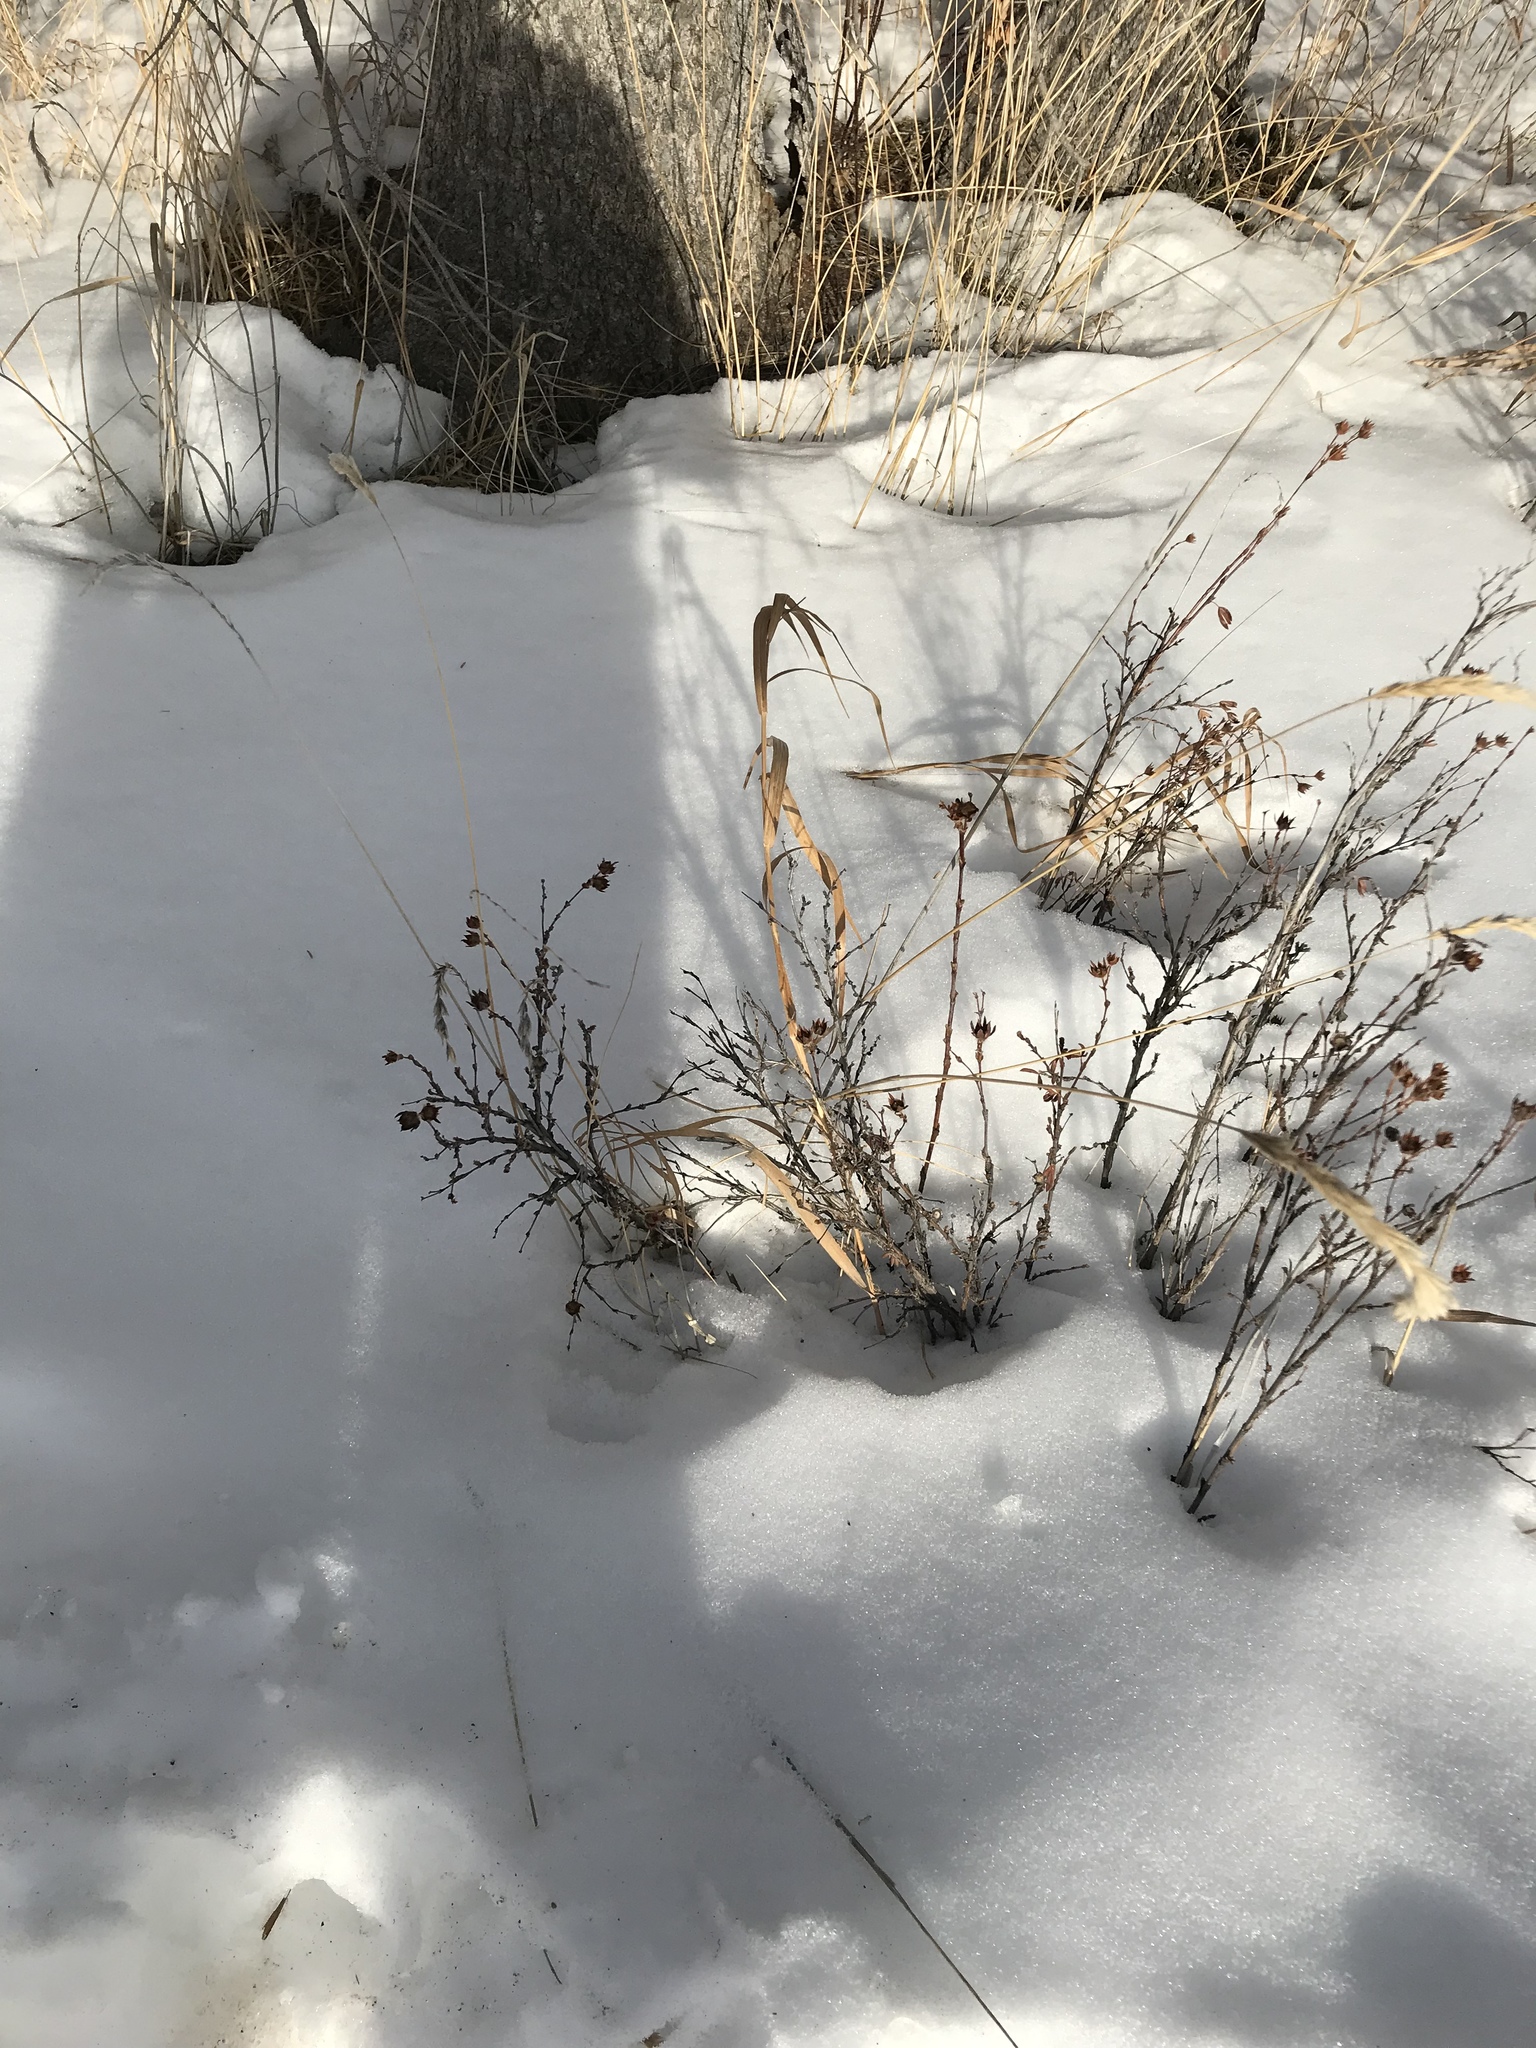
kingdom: Plantae
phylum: Tracheophyta
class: Magnoliopsida
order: Rosales
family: Rosaceae
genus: Dasiphora
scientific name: Dasiphora fruticosa
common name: Shrubby cinquefoil
